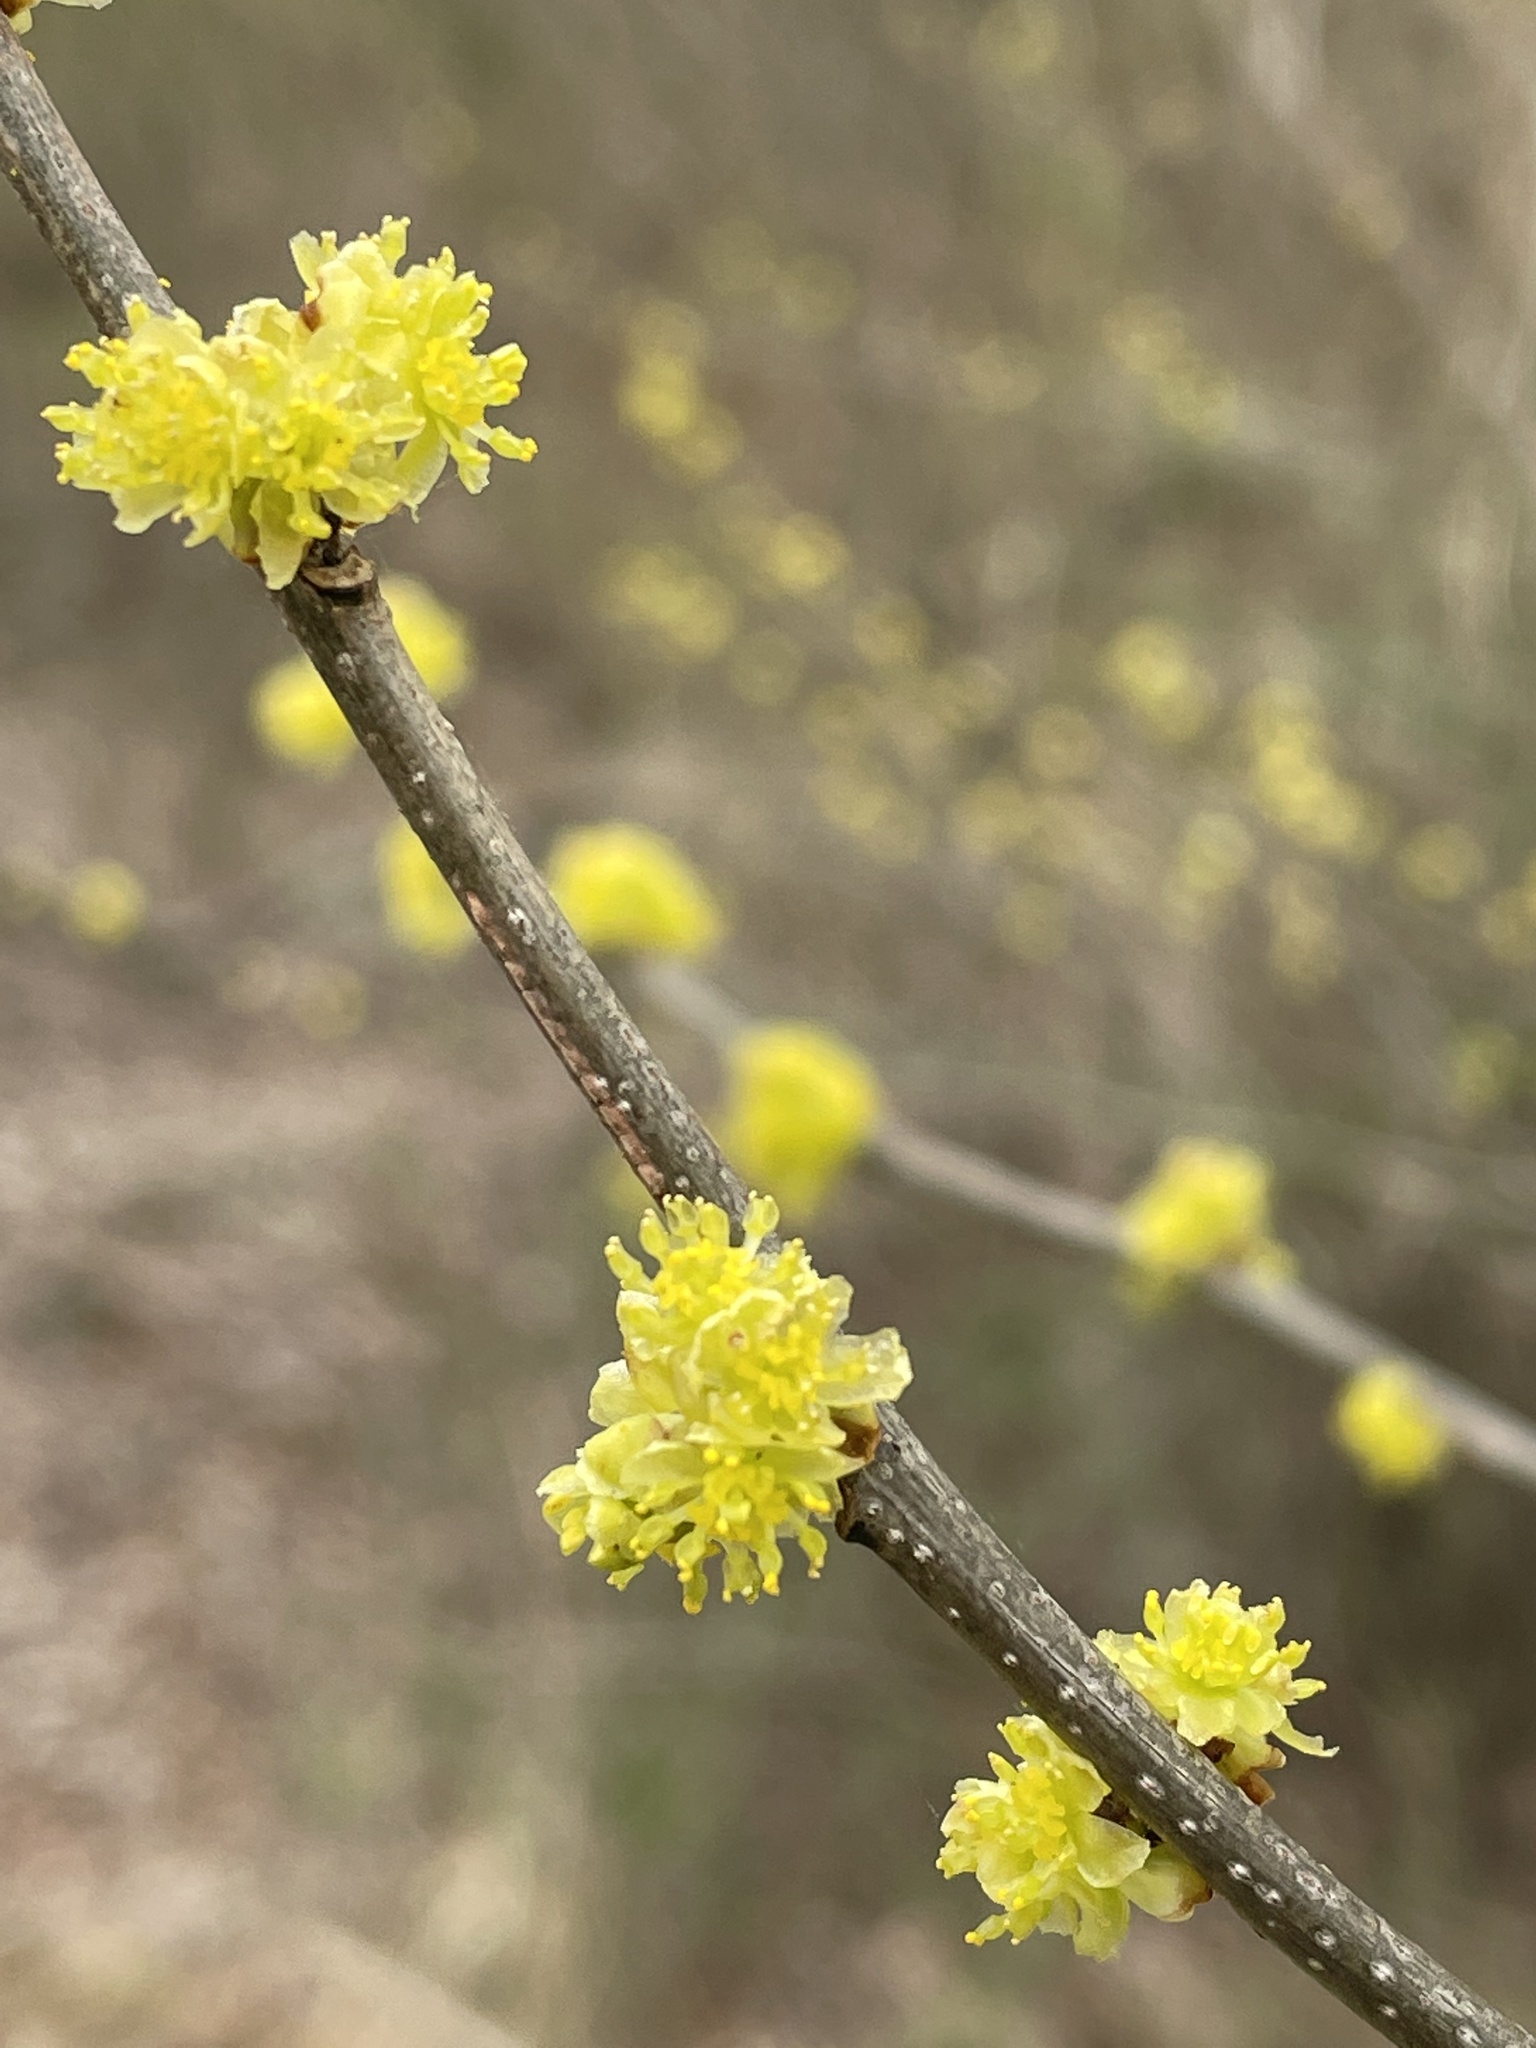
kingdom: Plantae
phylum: Tracheophyta
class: Magnoliopsida
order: Laurales
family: Lauraceae
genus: Lindera
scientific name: Lindera benzoin
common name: Spicebush
